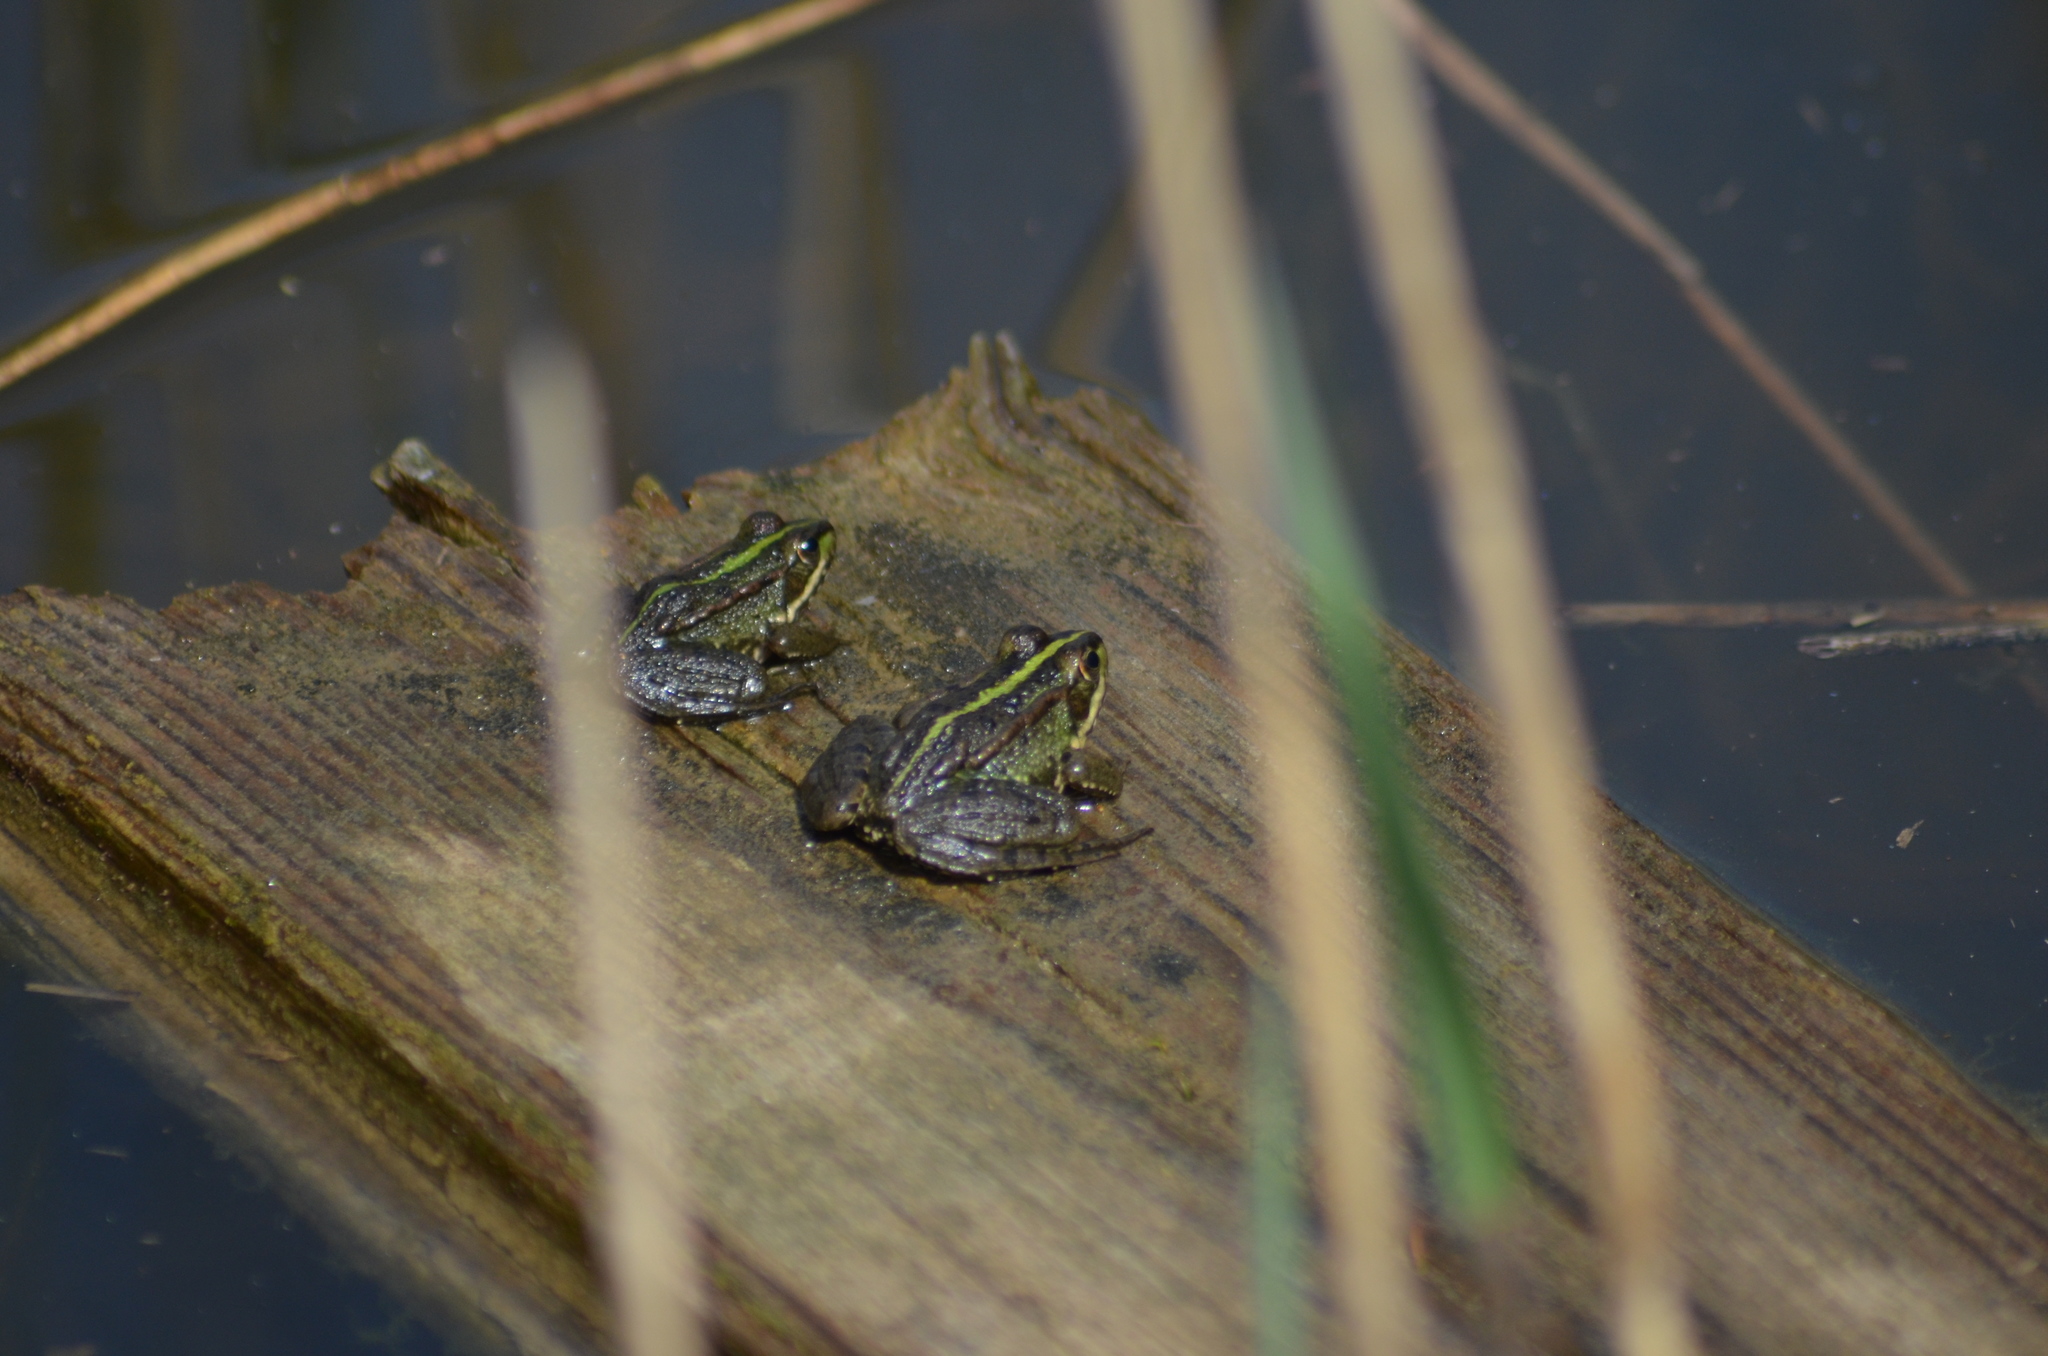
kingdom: Animalia
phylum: Chordata
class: Amphibia
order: Anura
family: Ranidae
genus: Pelophylax
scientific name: Pelophylax perezi
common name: Perez's frog
